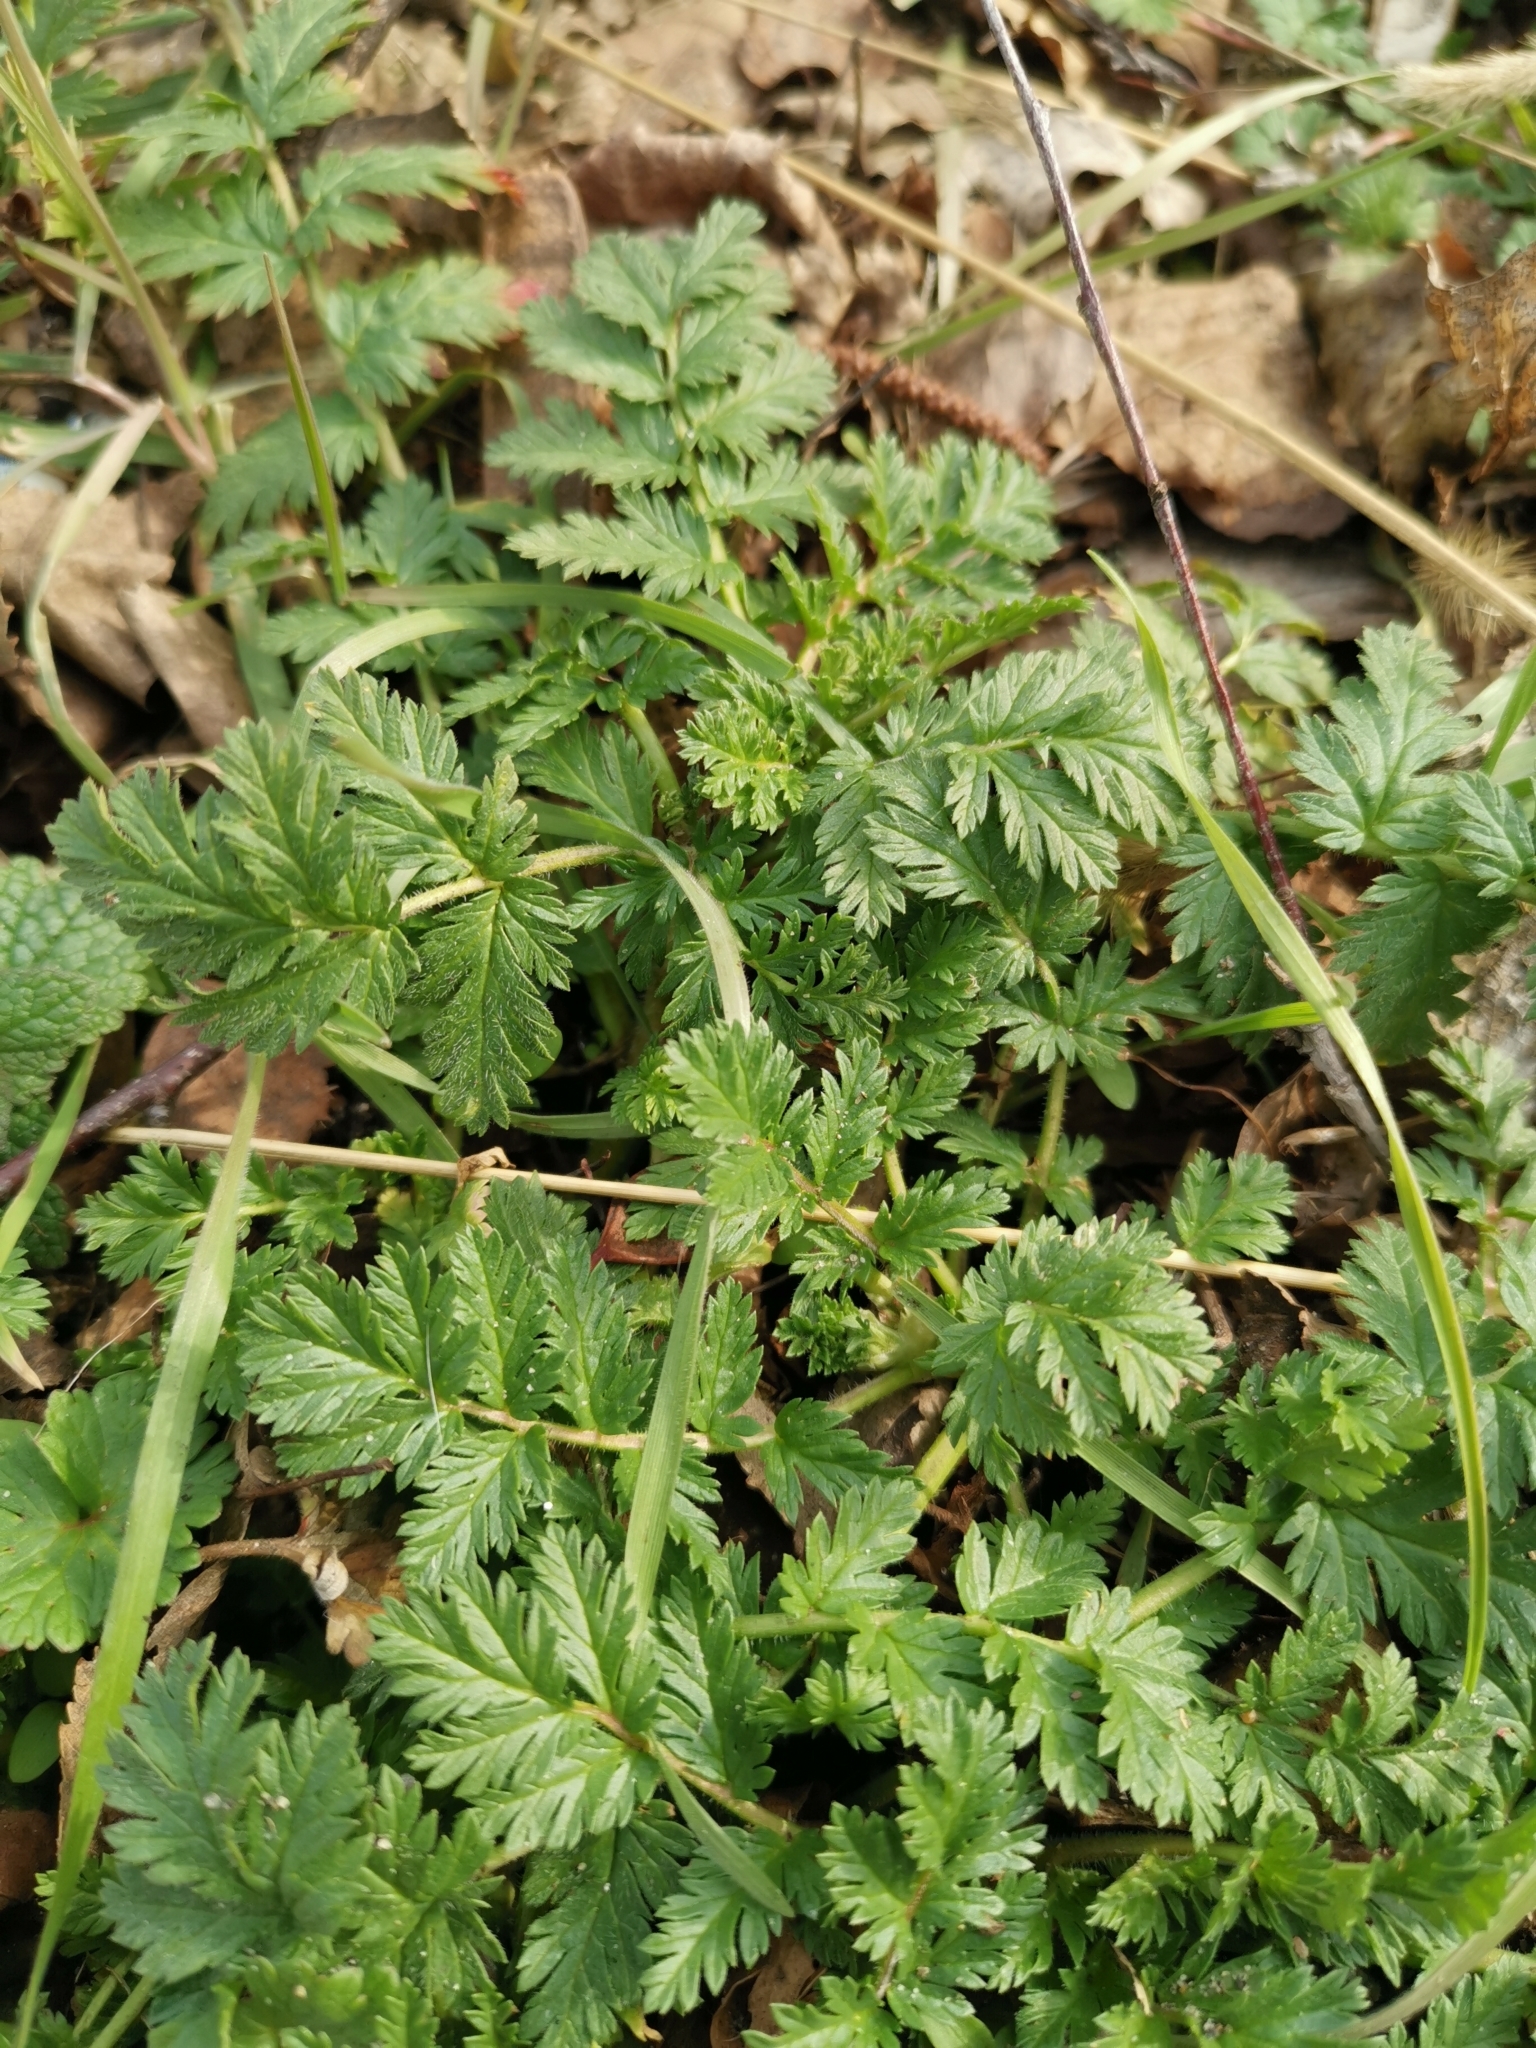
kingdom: Plantae
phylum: Tracheophyta
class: Magnoliopsida
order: Geraniales
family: Geraniaceae
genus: Erodium
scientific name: Erodium cicutarium
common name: Common stork's-bill
